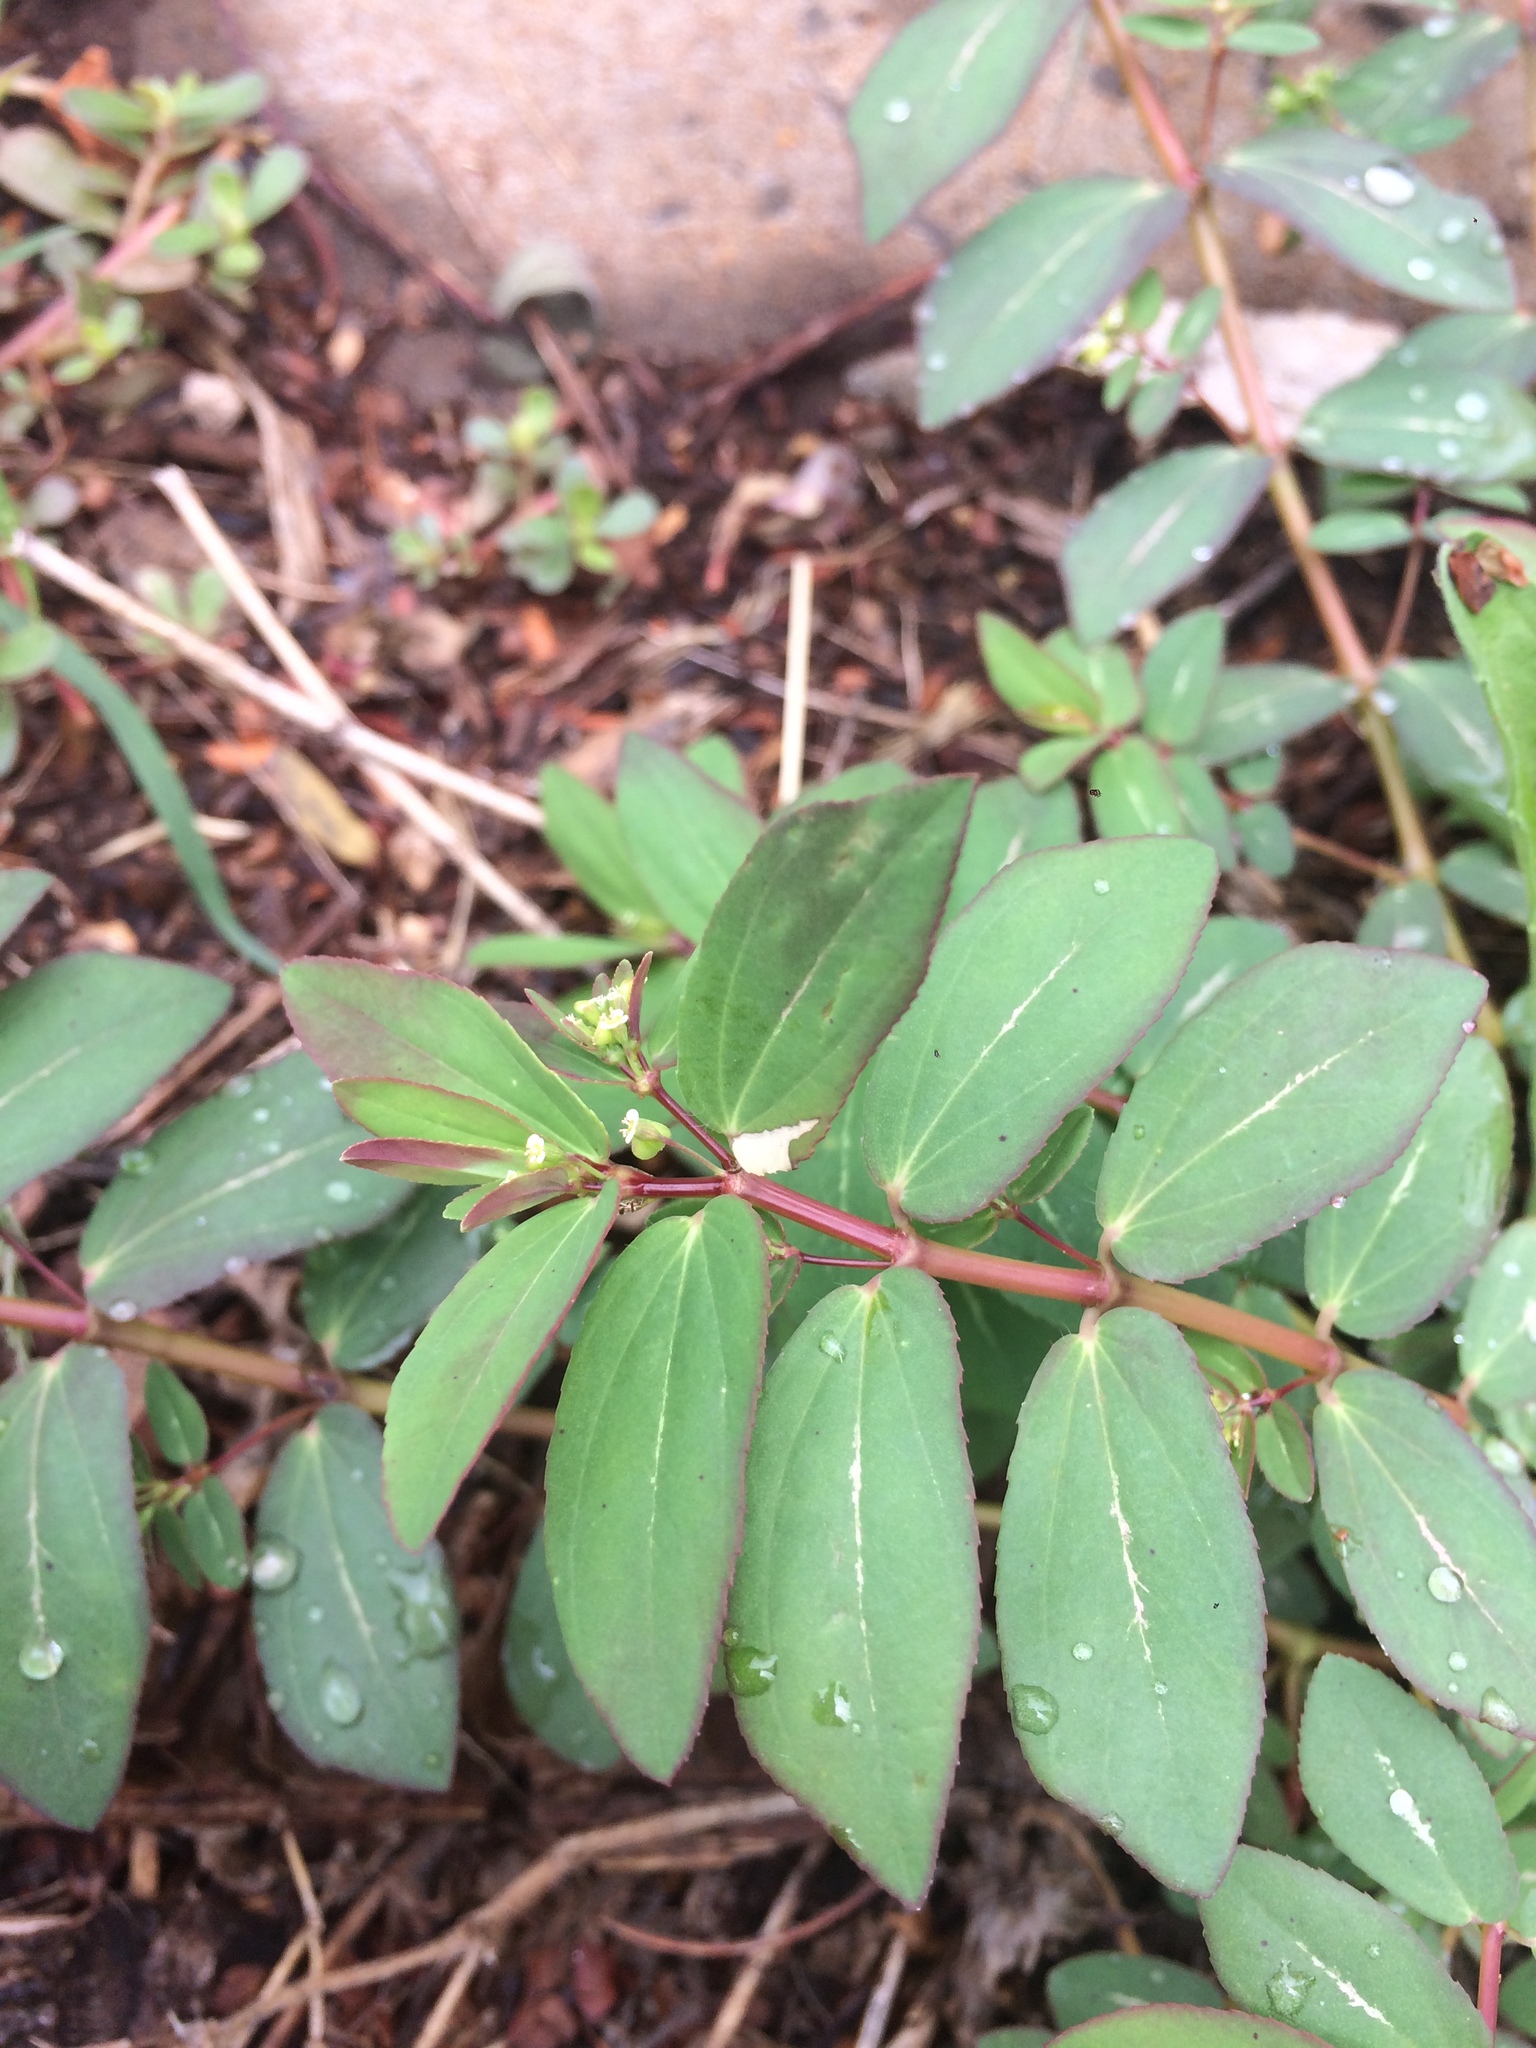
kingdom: Plantae
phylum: Tracheophyta
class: Magnoliopsida
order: Malpighiales
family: Euphorbiaceae
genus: Euphorbia
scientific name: Euphorbia hyssopifolia
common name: Hyssopleaf sandmat
